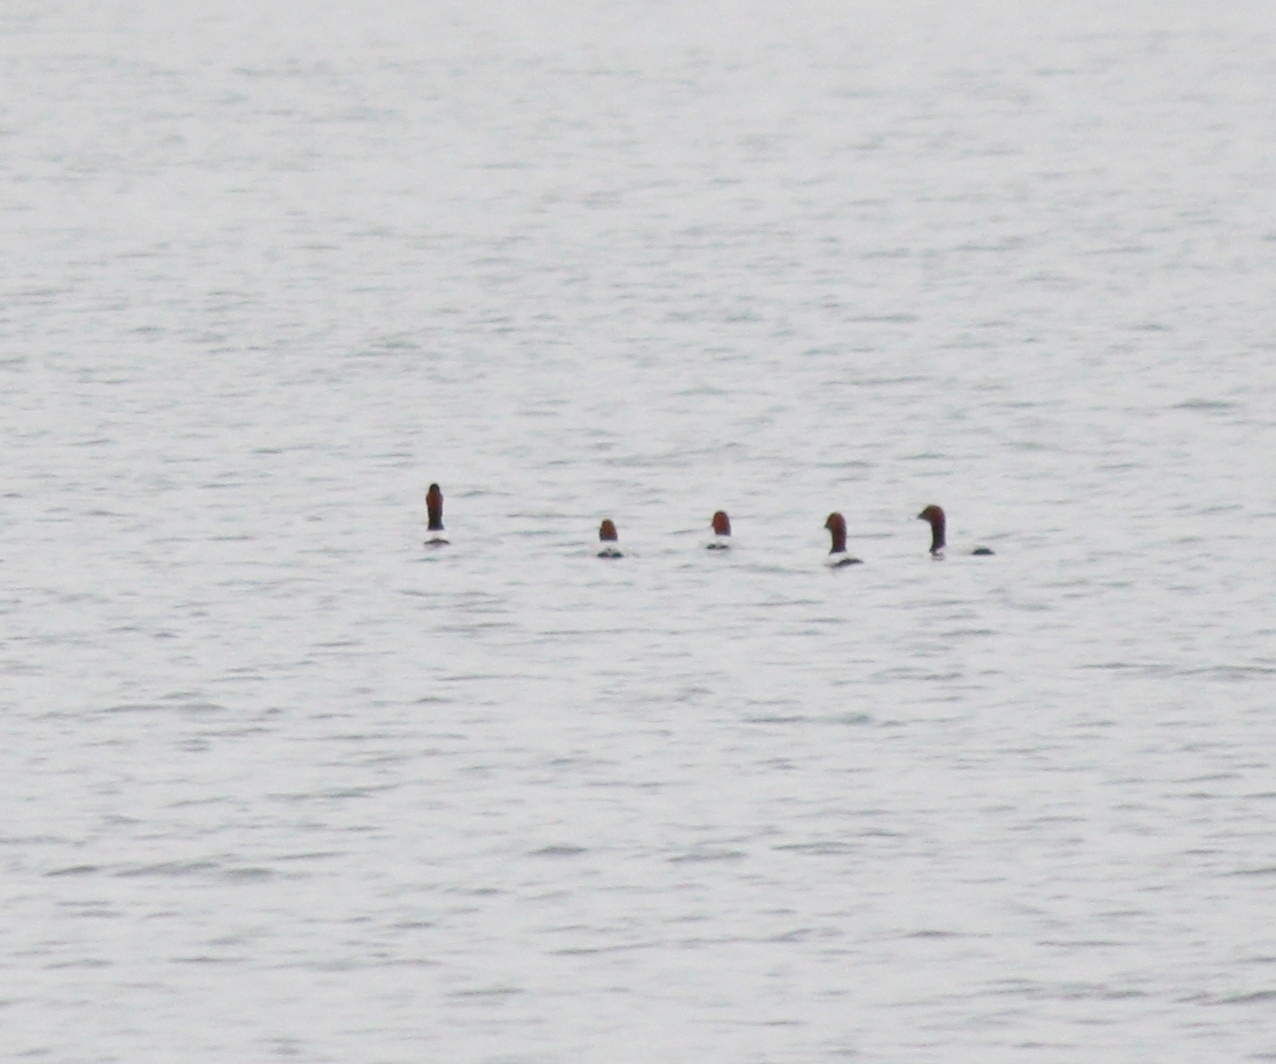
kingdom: Animalia
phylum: Chordata
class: Aves
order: Anseriformes
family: Anatidae
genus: Aythya
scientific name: Aythya ferina
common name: Common pochard
